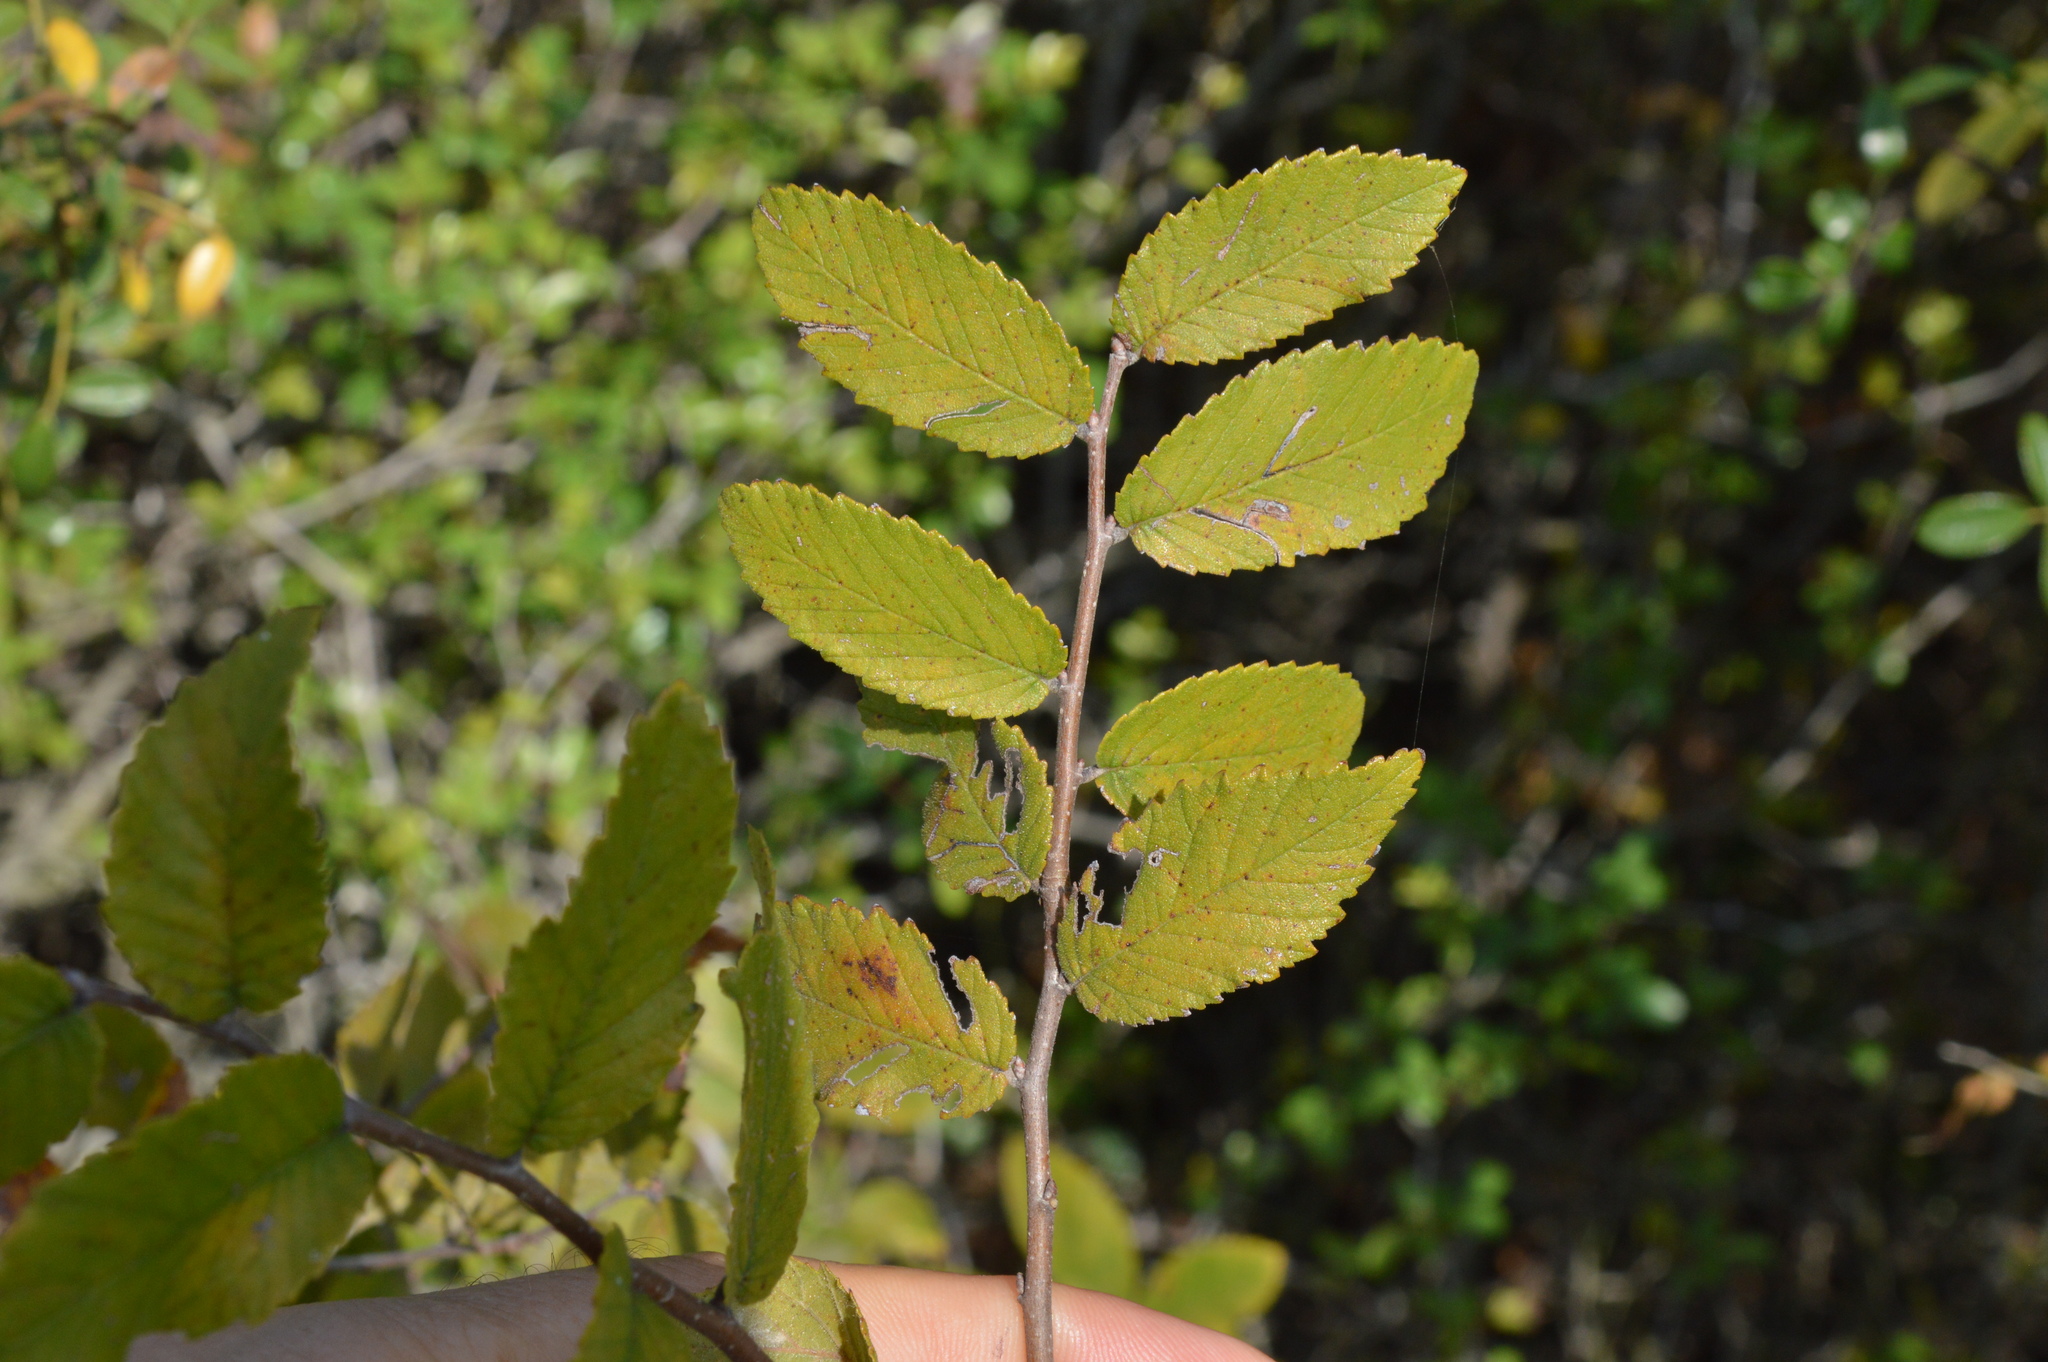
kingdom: Plantae
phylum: Tracheophyta
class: Magnoliopsida
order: Rosales
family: Ulmaceae
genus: Ulmus
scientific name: Ulmus crassifolia
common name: Basket elm
